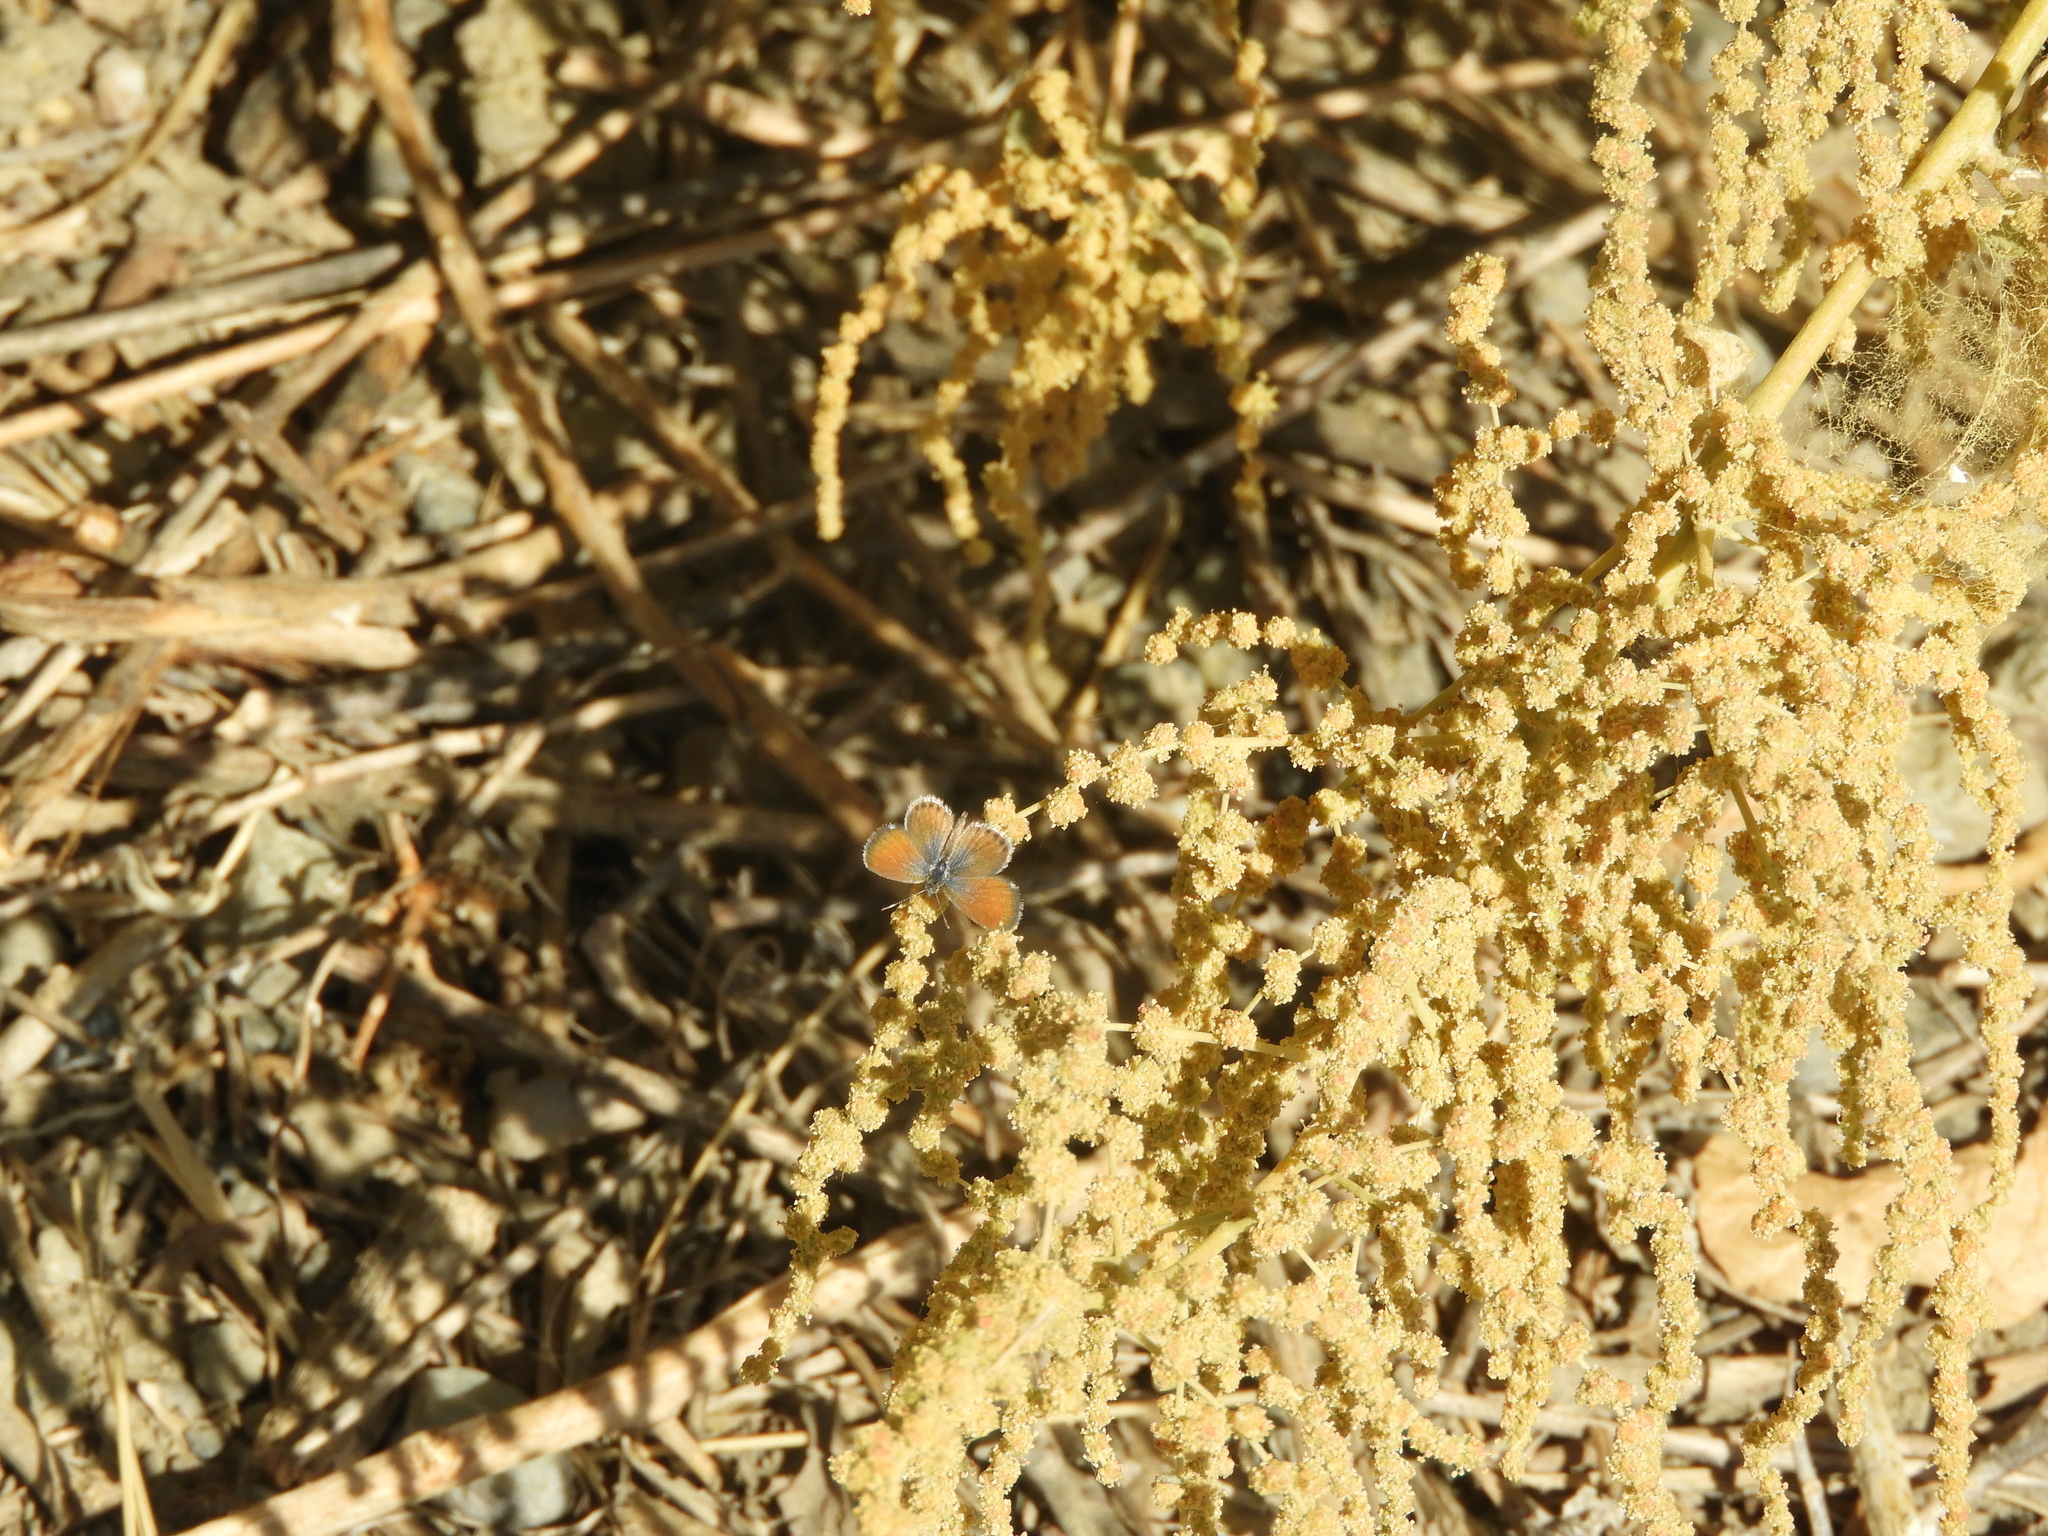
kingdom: Animalia
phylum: Arthropoda
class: Insecta
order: Lepidoptera
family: Lycaenidae
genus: Brephidium
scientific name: Brephidium exilis
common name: Pygmy blue
